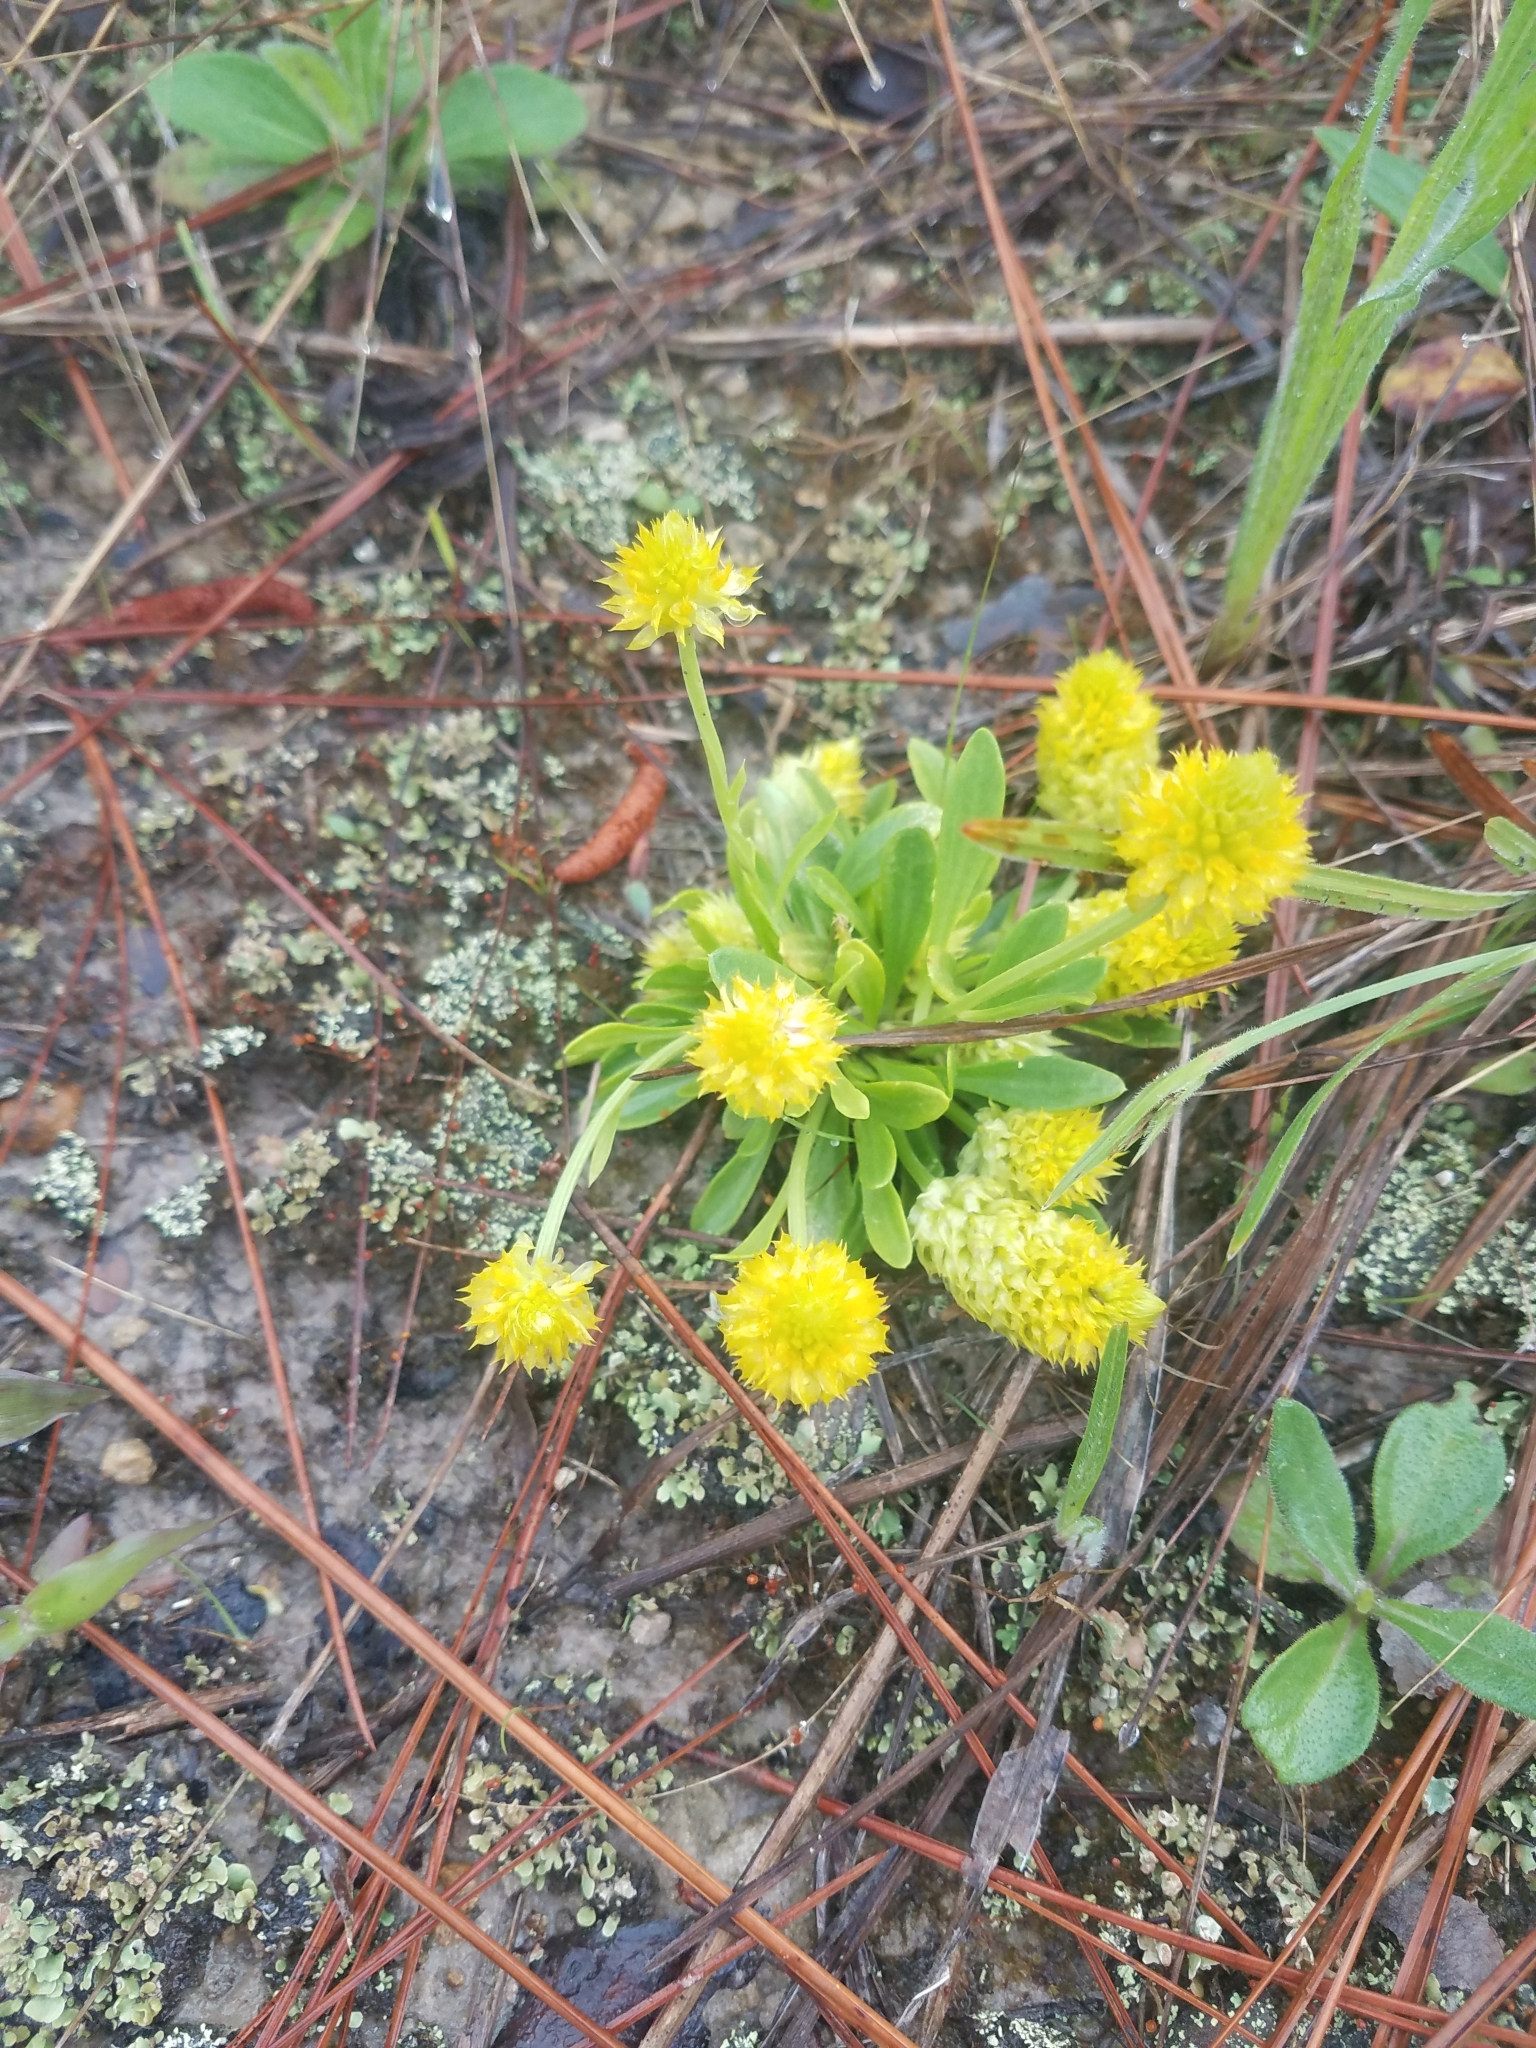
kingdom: Plantae
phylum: Tracheophyta
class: Magnoliopsida
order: Fabales
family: Polygalaceae
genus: Polygala
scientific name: Polygala nana
